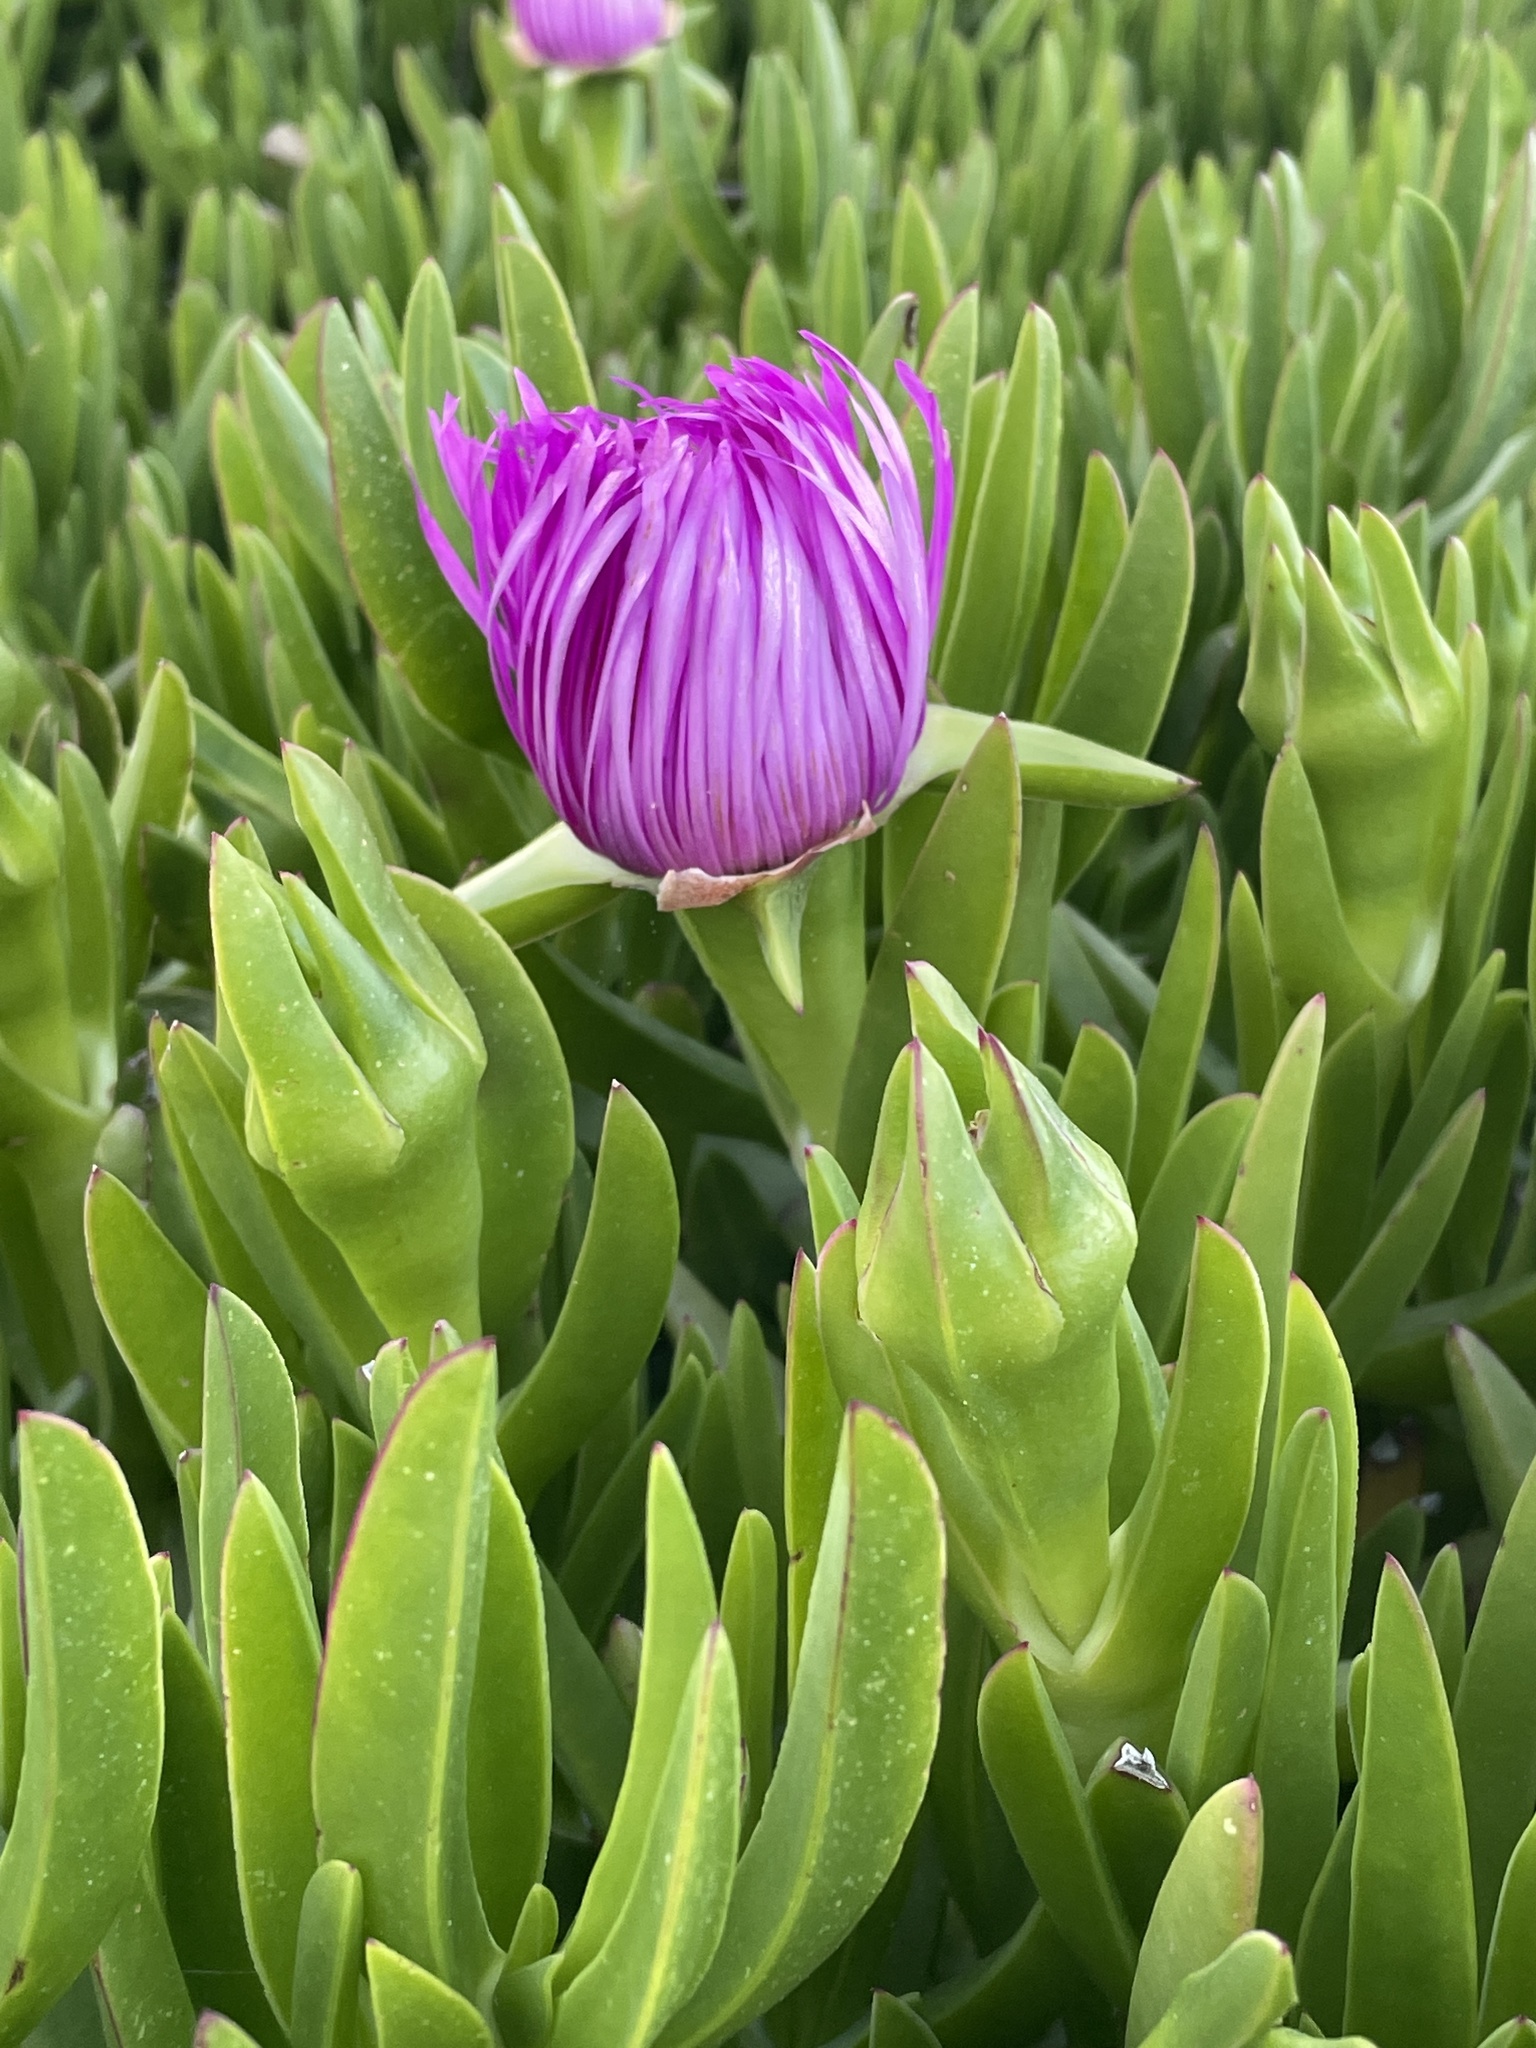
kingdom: Plantae
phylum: Tracheophyta
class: Magnoliopsida
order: Caryophyllales
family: Aizoaceae
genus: Carpobrotus
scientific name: Carpobrotus acinaciformis
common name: Sally-my-handsome
